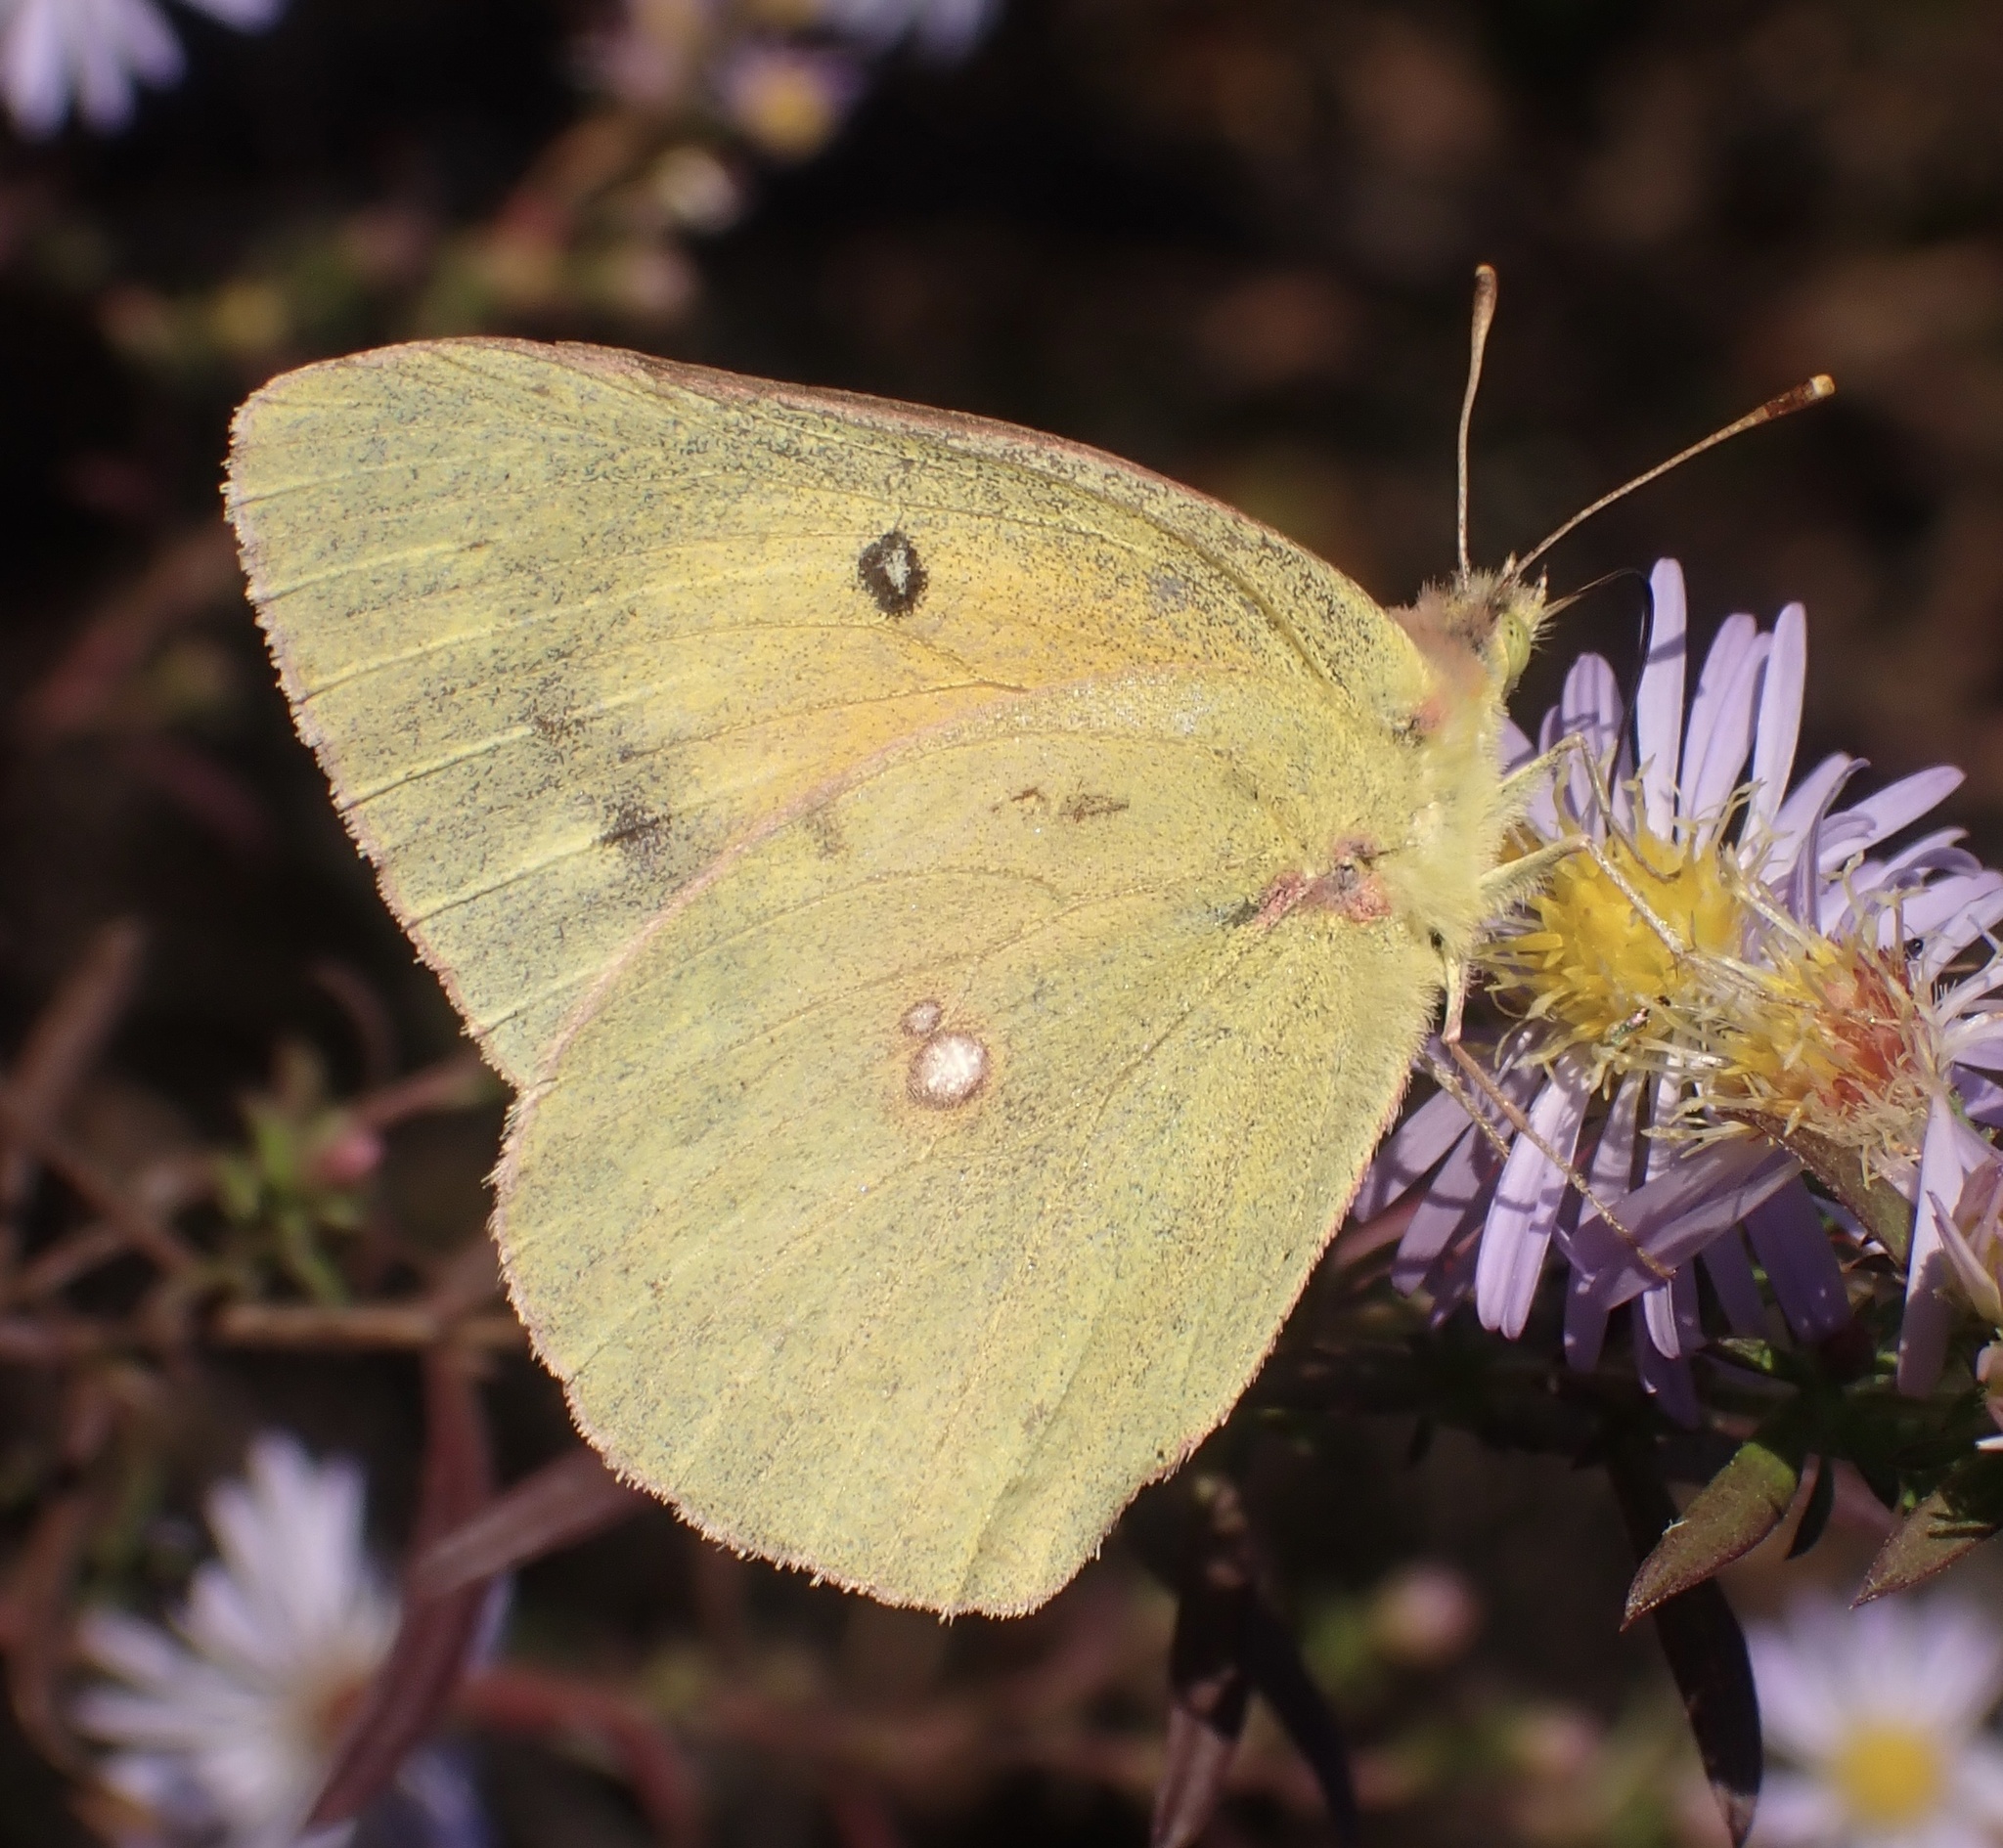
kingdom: Animalia
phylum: Arthropoda
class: Insecta
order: Lepidoptera
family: Pieridae
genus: Colias
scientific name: Colias eurytheme
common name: Alfalfa butterfly
